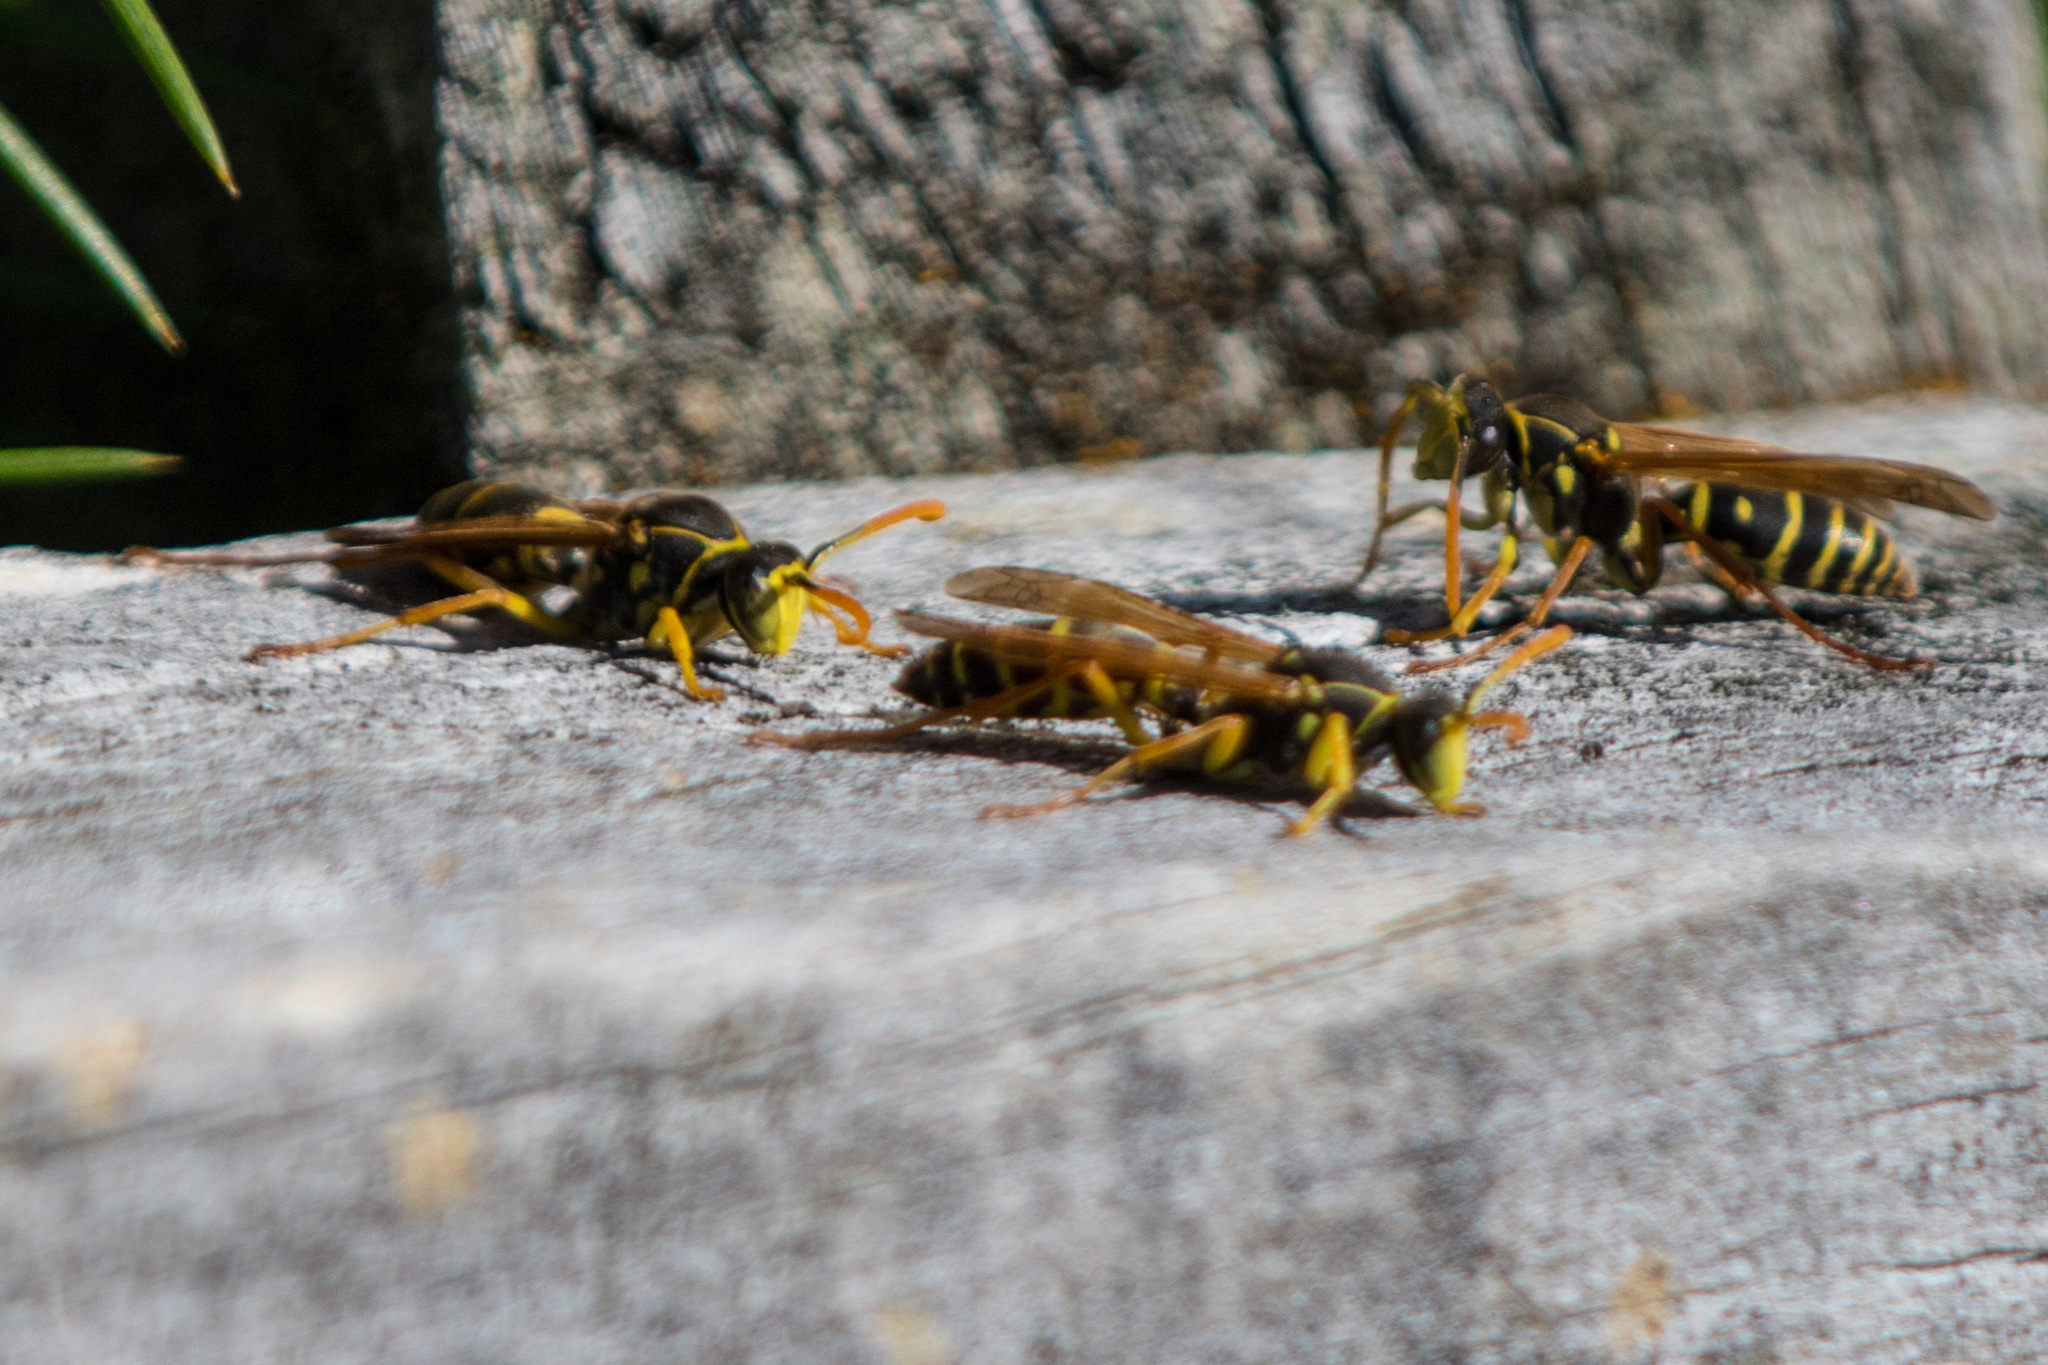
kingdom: Animalia
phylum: Arthropoda
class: Insecta
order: Hymenoptera
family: Eumenidae
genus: Polistes
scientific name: Polistes chinensis
